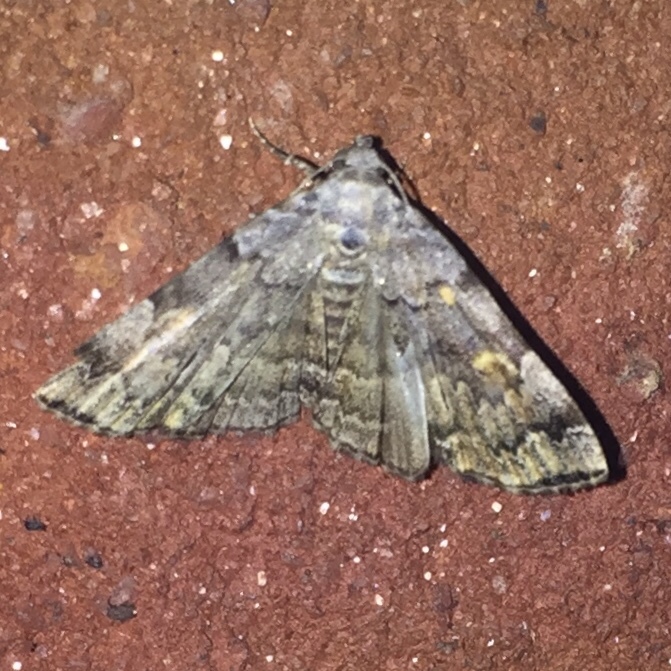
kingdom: Animalia
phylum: Arthropoda
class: Insecta
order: Lepidoptera
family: Erebidae
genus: Idia
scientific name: Idia americalis
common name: American idia moth
